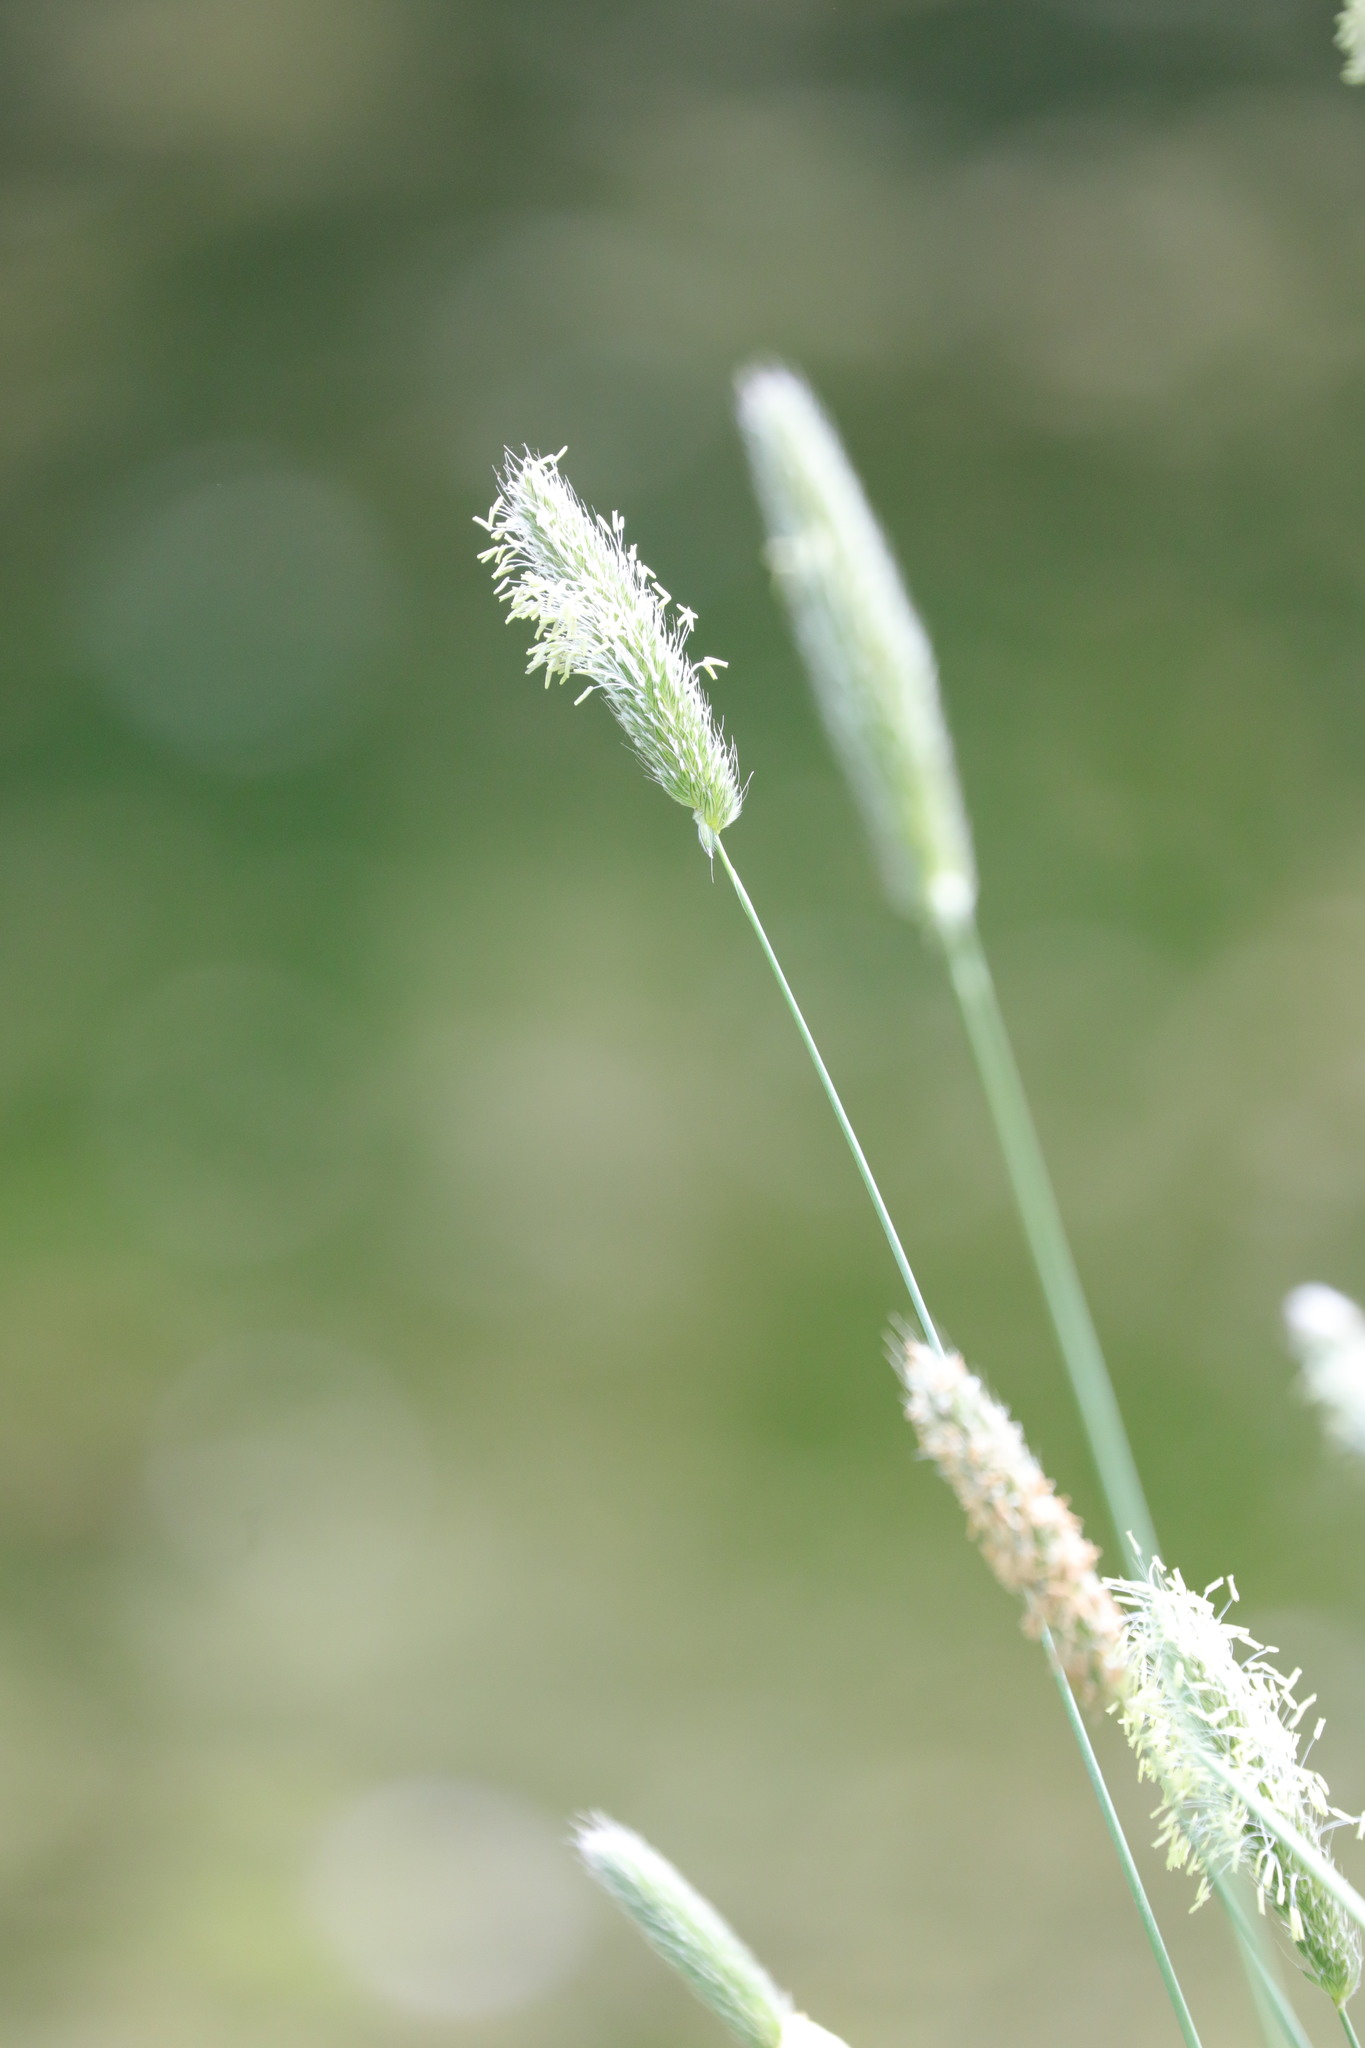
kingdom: Plantae
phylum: Tracheophyta
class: Liliopsida
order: Poales
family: Poaceae
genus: Alopecurus
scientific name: Alopecurus pratensis
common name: Meadow foxtail
